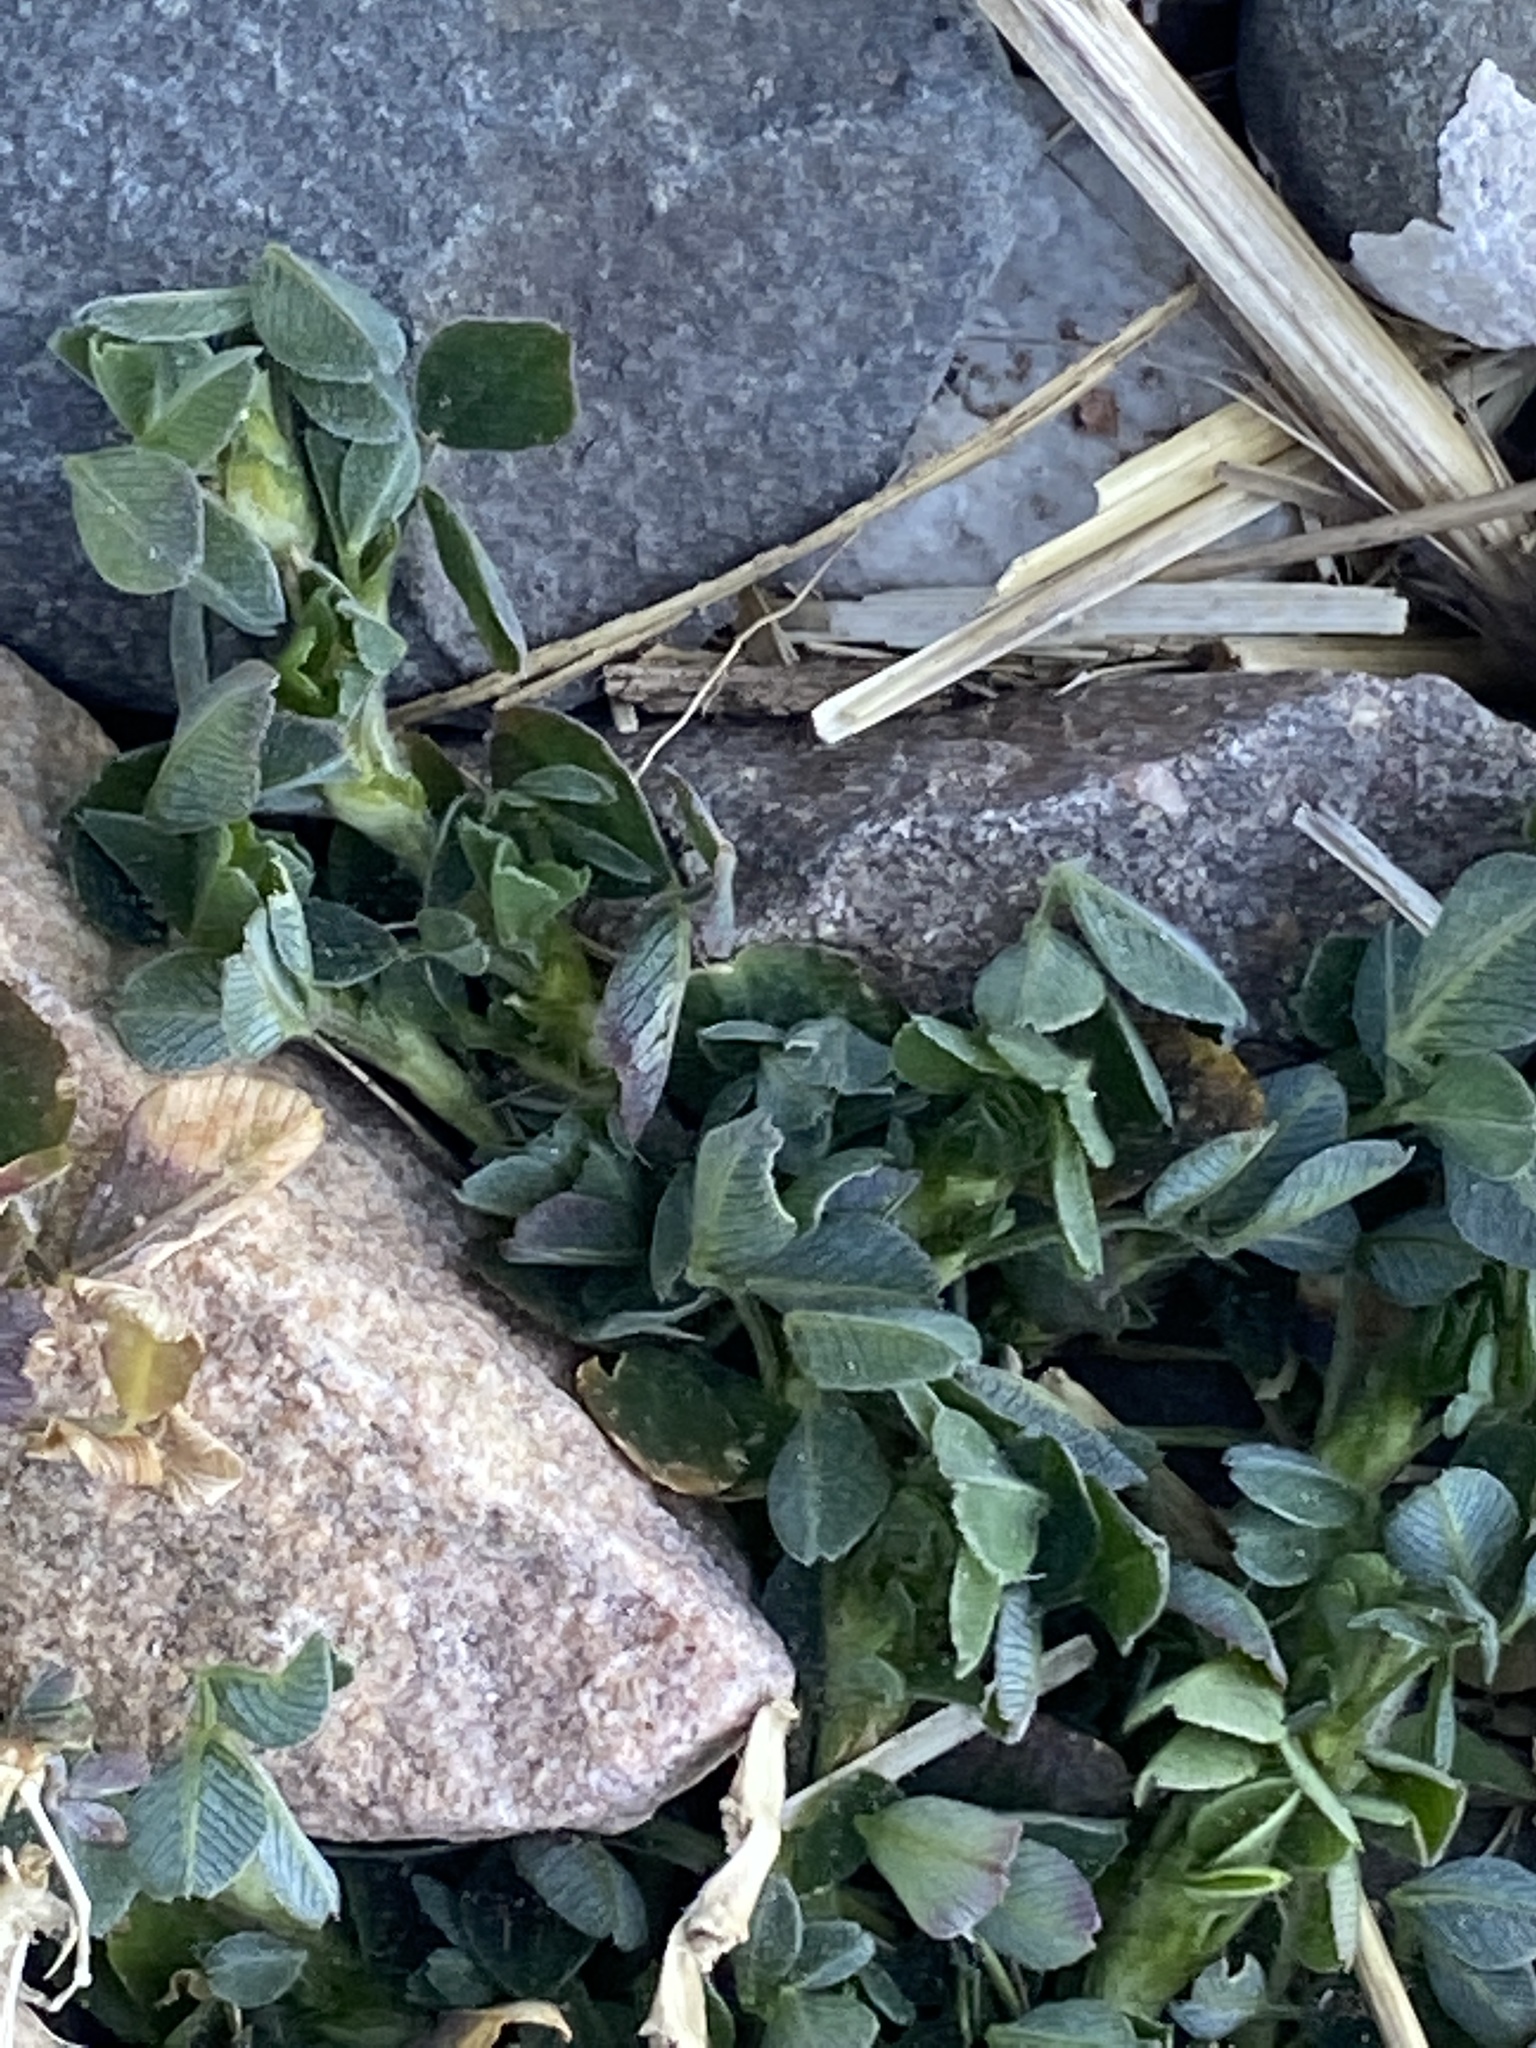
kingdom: Plantae
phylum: Tracheophyta
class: Magnoliopsida
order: Fabales
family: Fabaceae
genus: Medicago
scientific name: Medicago lupulina
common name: Black medick
